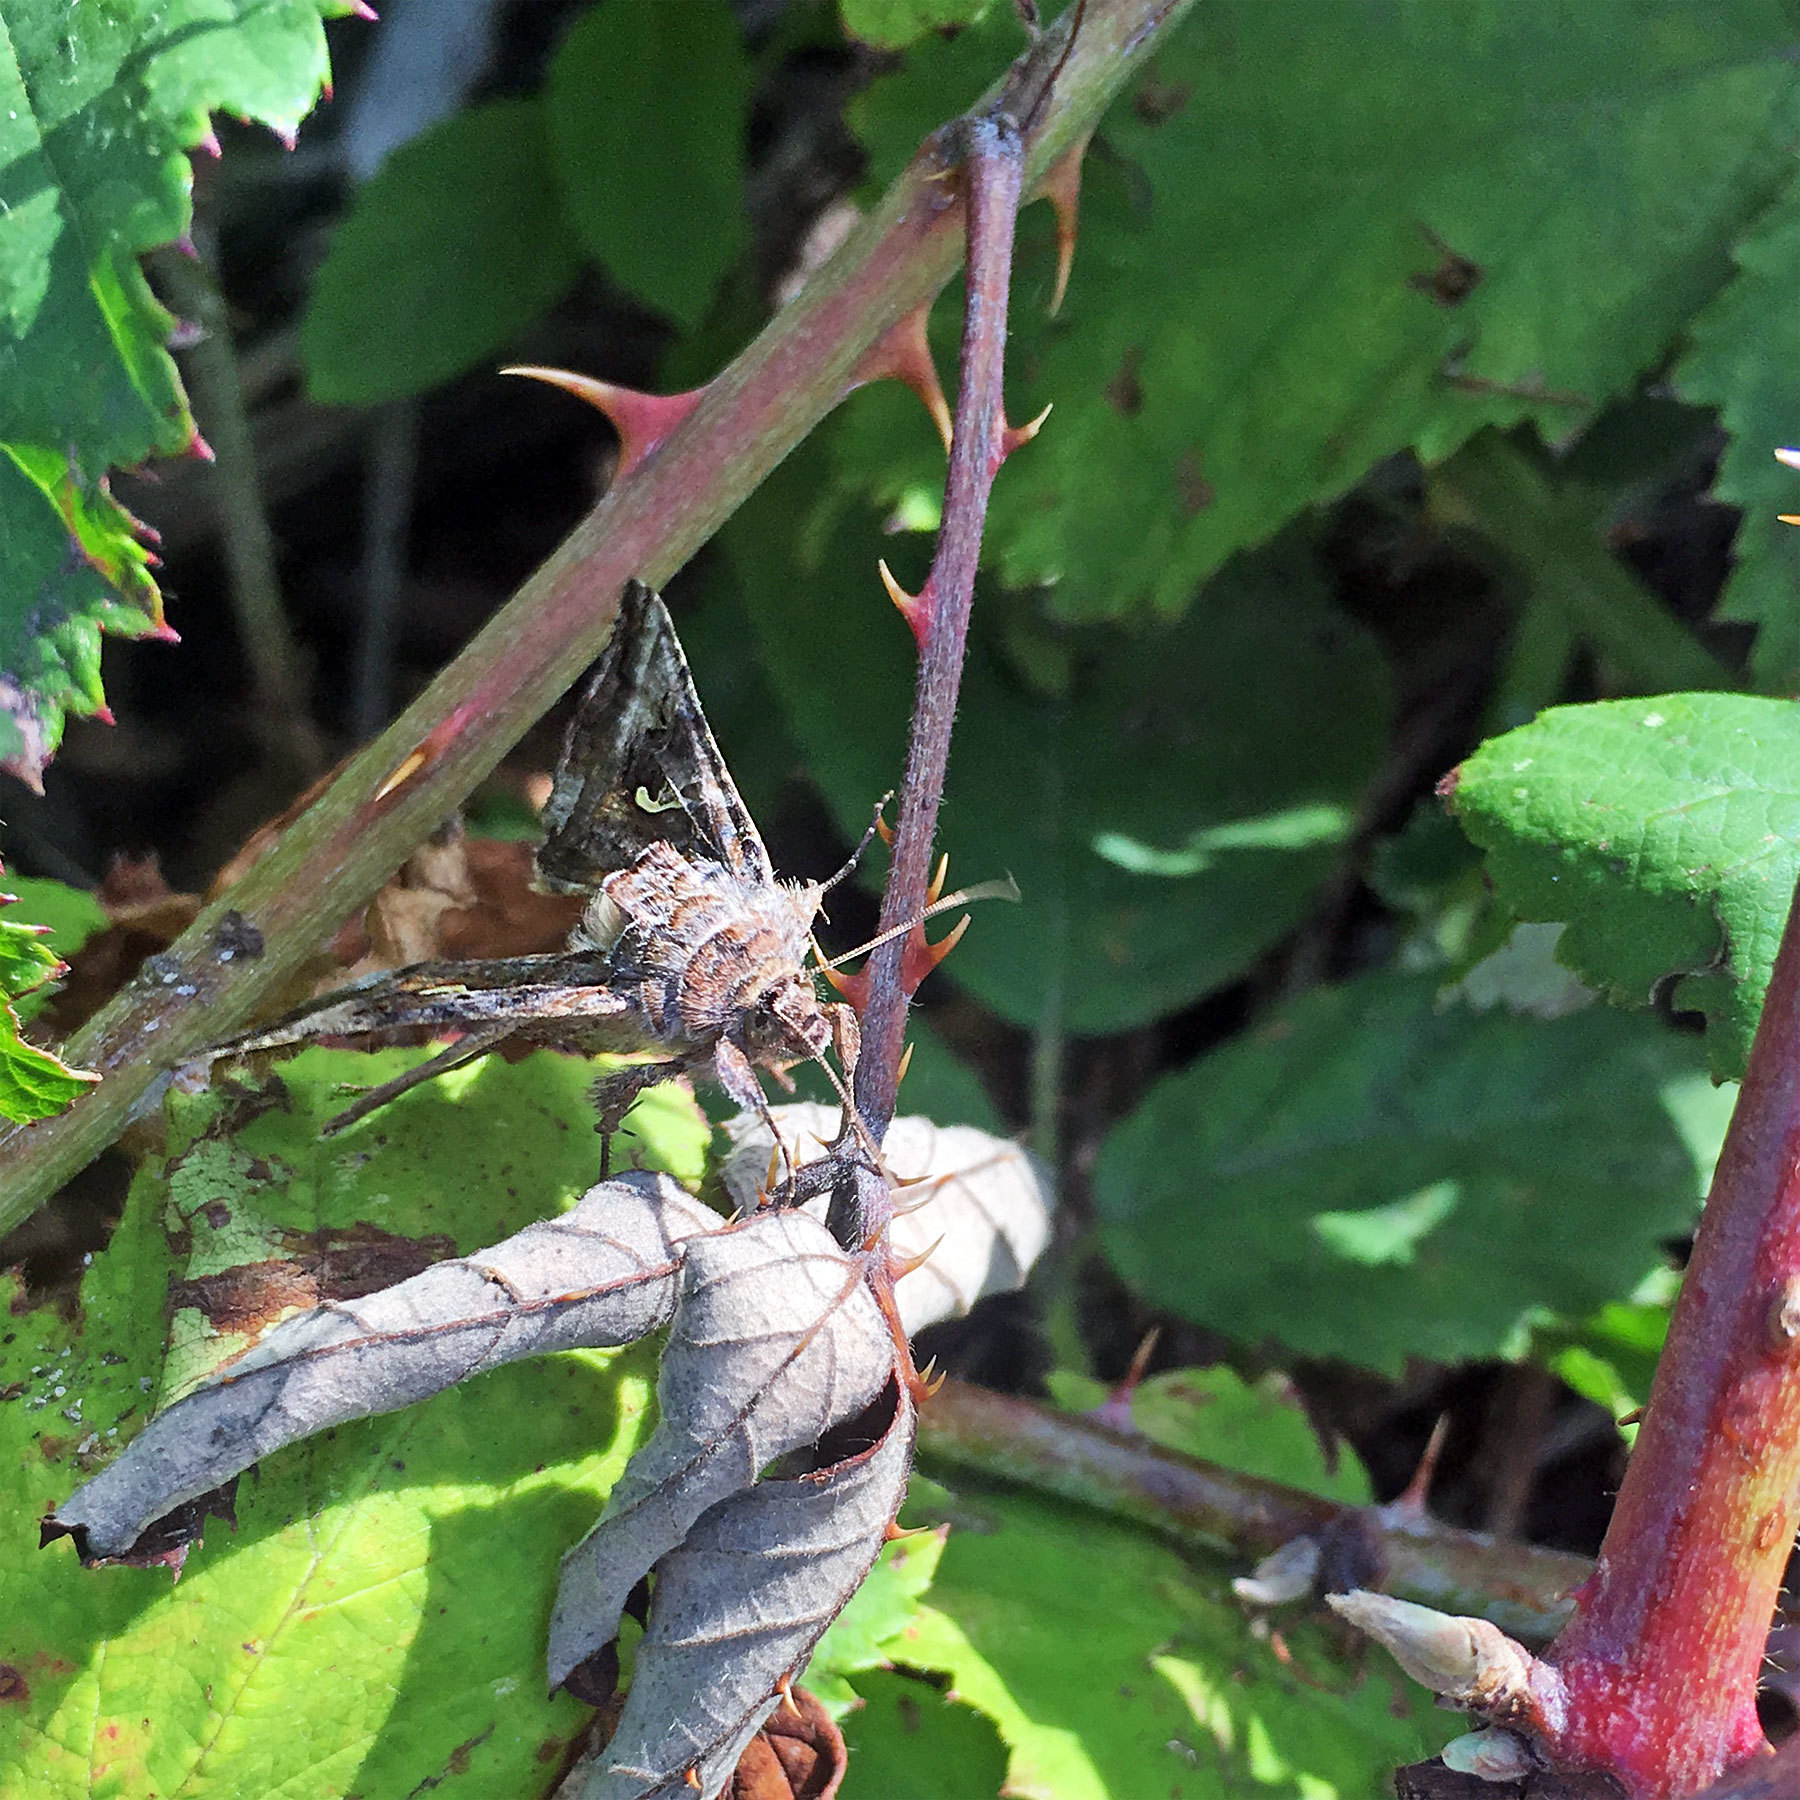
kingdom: Animalia
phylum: Arthropoda
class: Insecta
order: Lepidoptera
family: Noctuidae
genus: Autographa
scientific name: Autographa gamma
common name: Silver y
